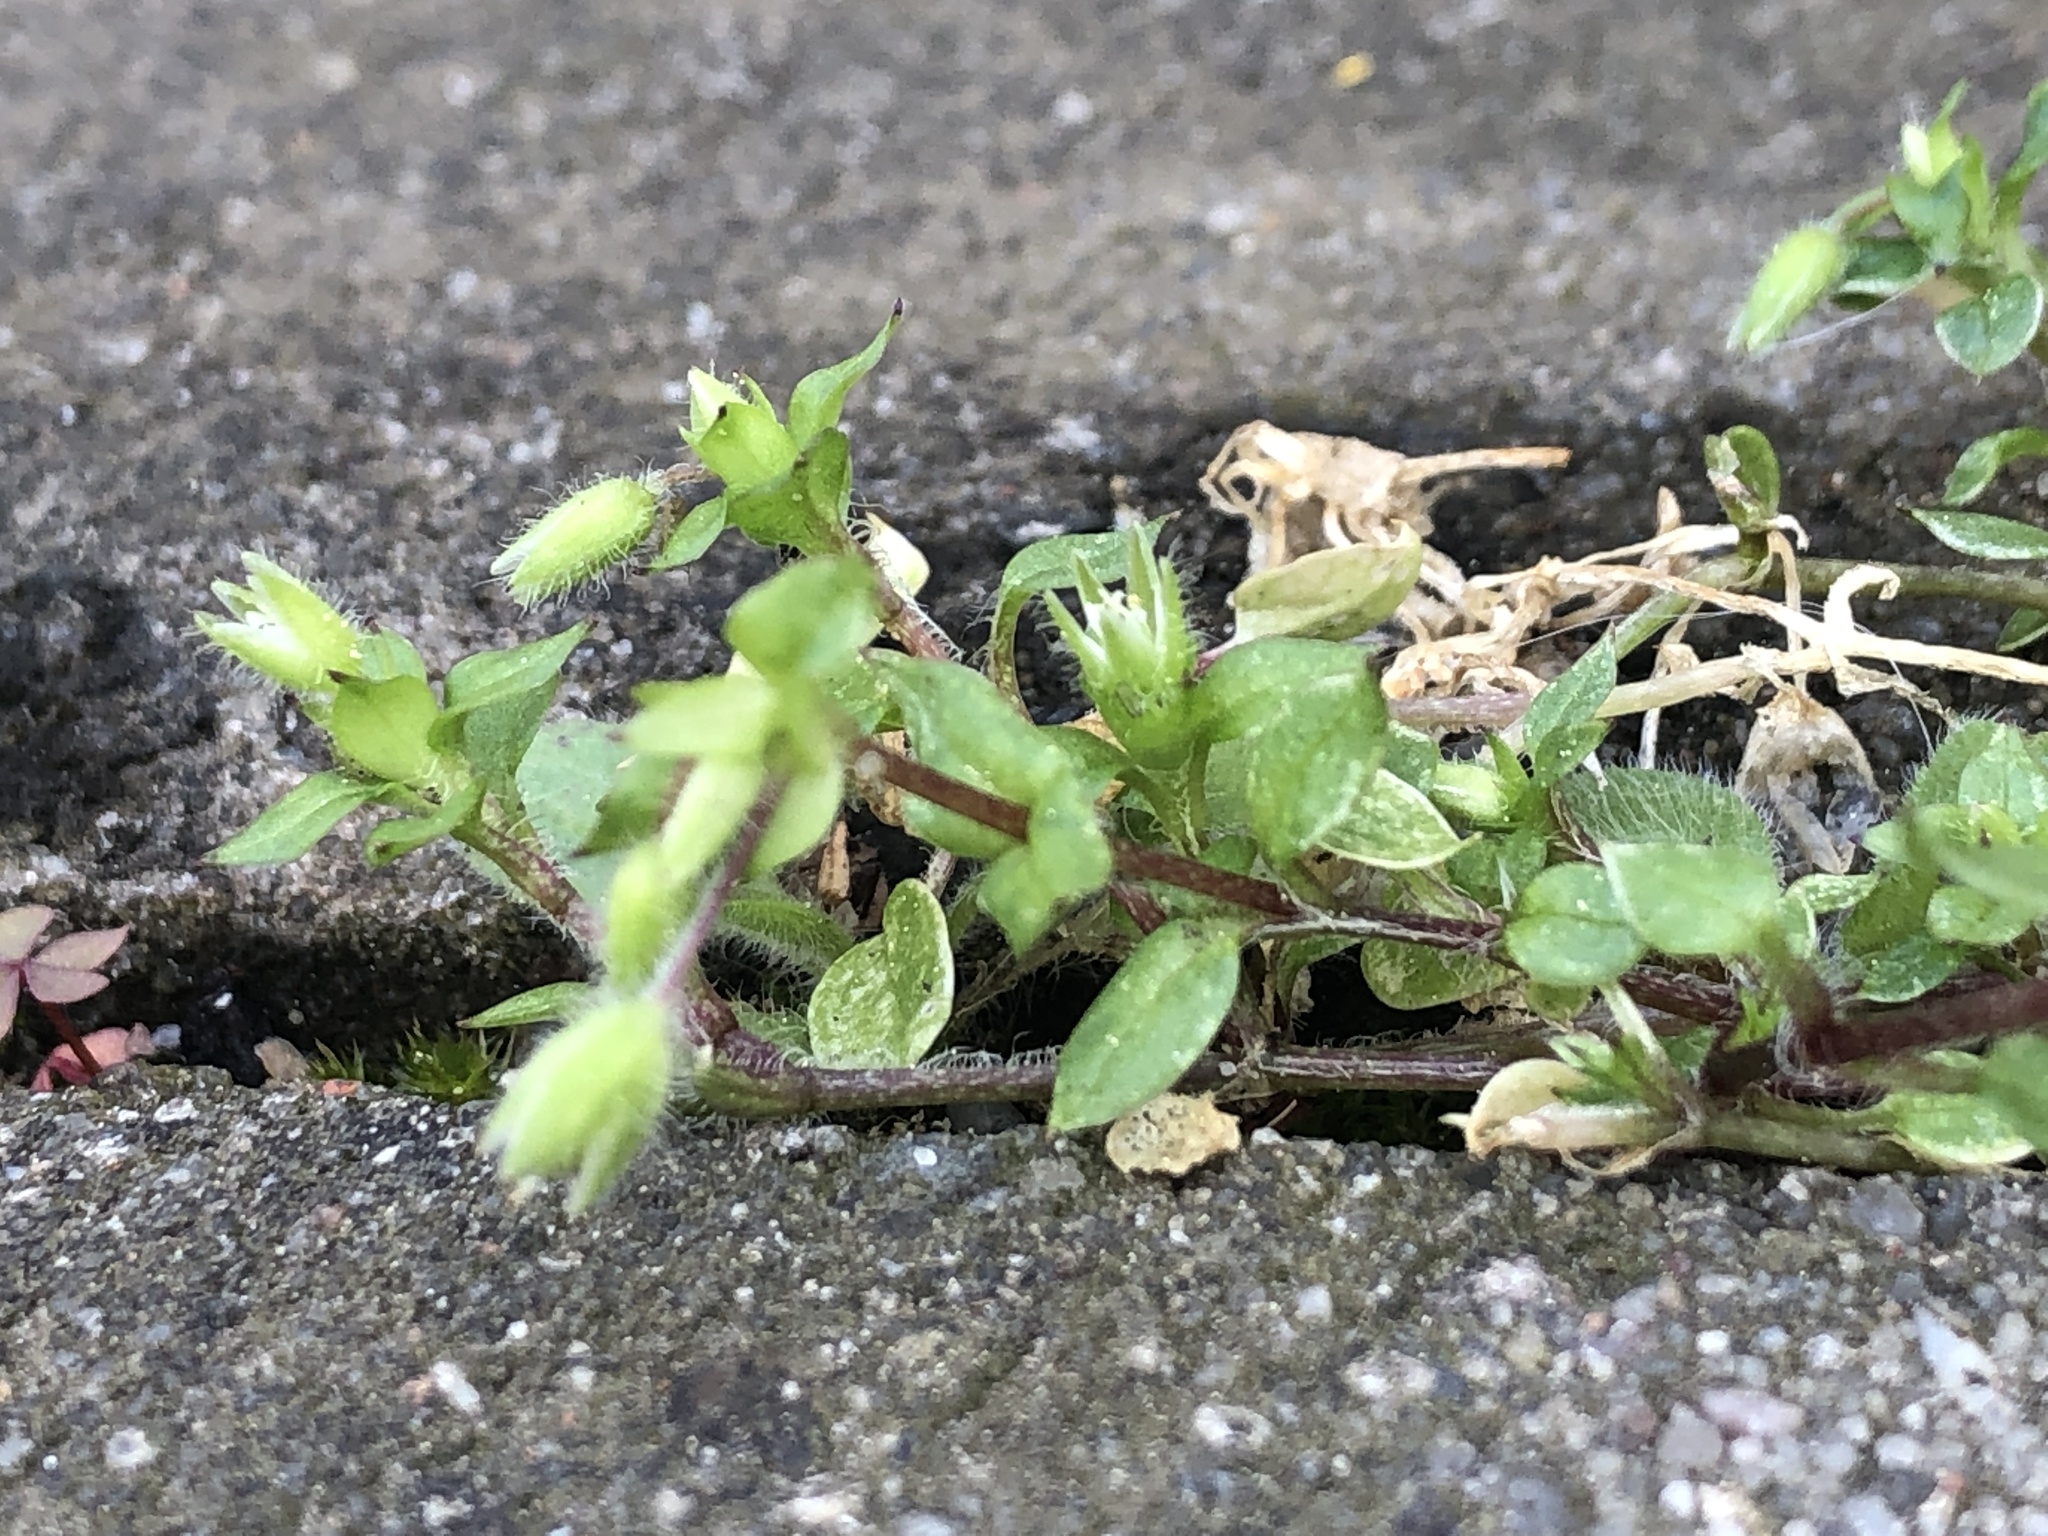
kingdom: Plantae
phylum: Tracheophyta
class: Magnoliopsida
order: Caryophyllales
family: Caryophyllaceae
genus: Stellaria
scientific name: Stellaria media
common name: Common chickweed
